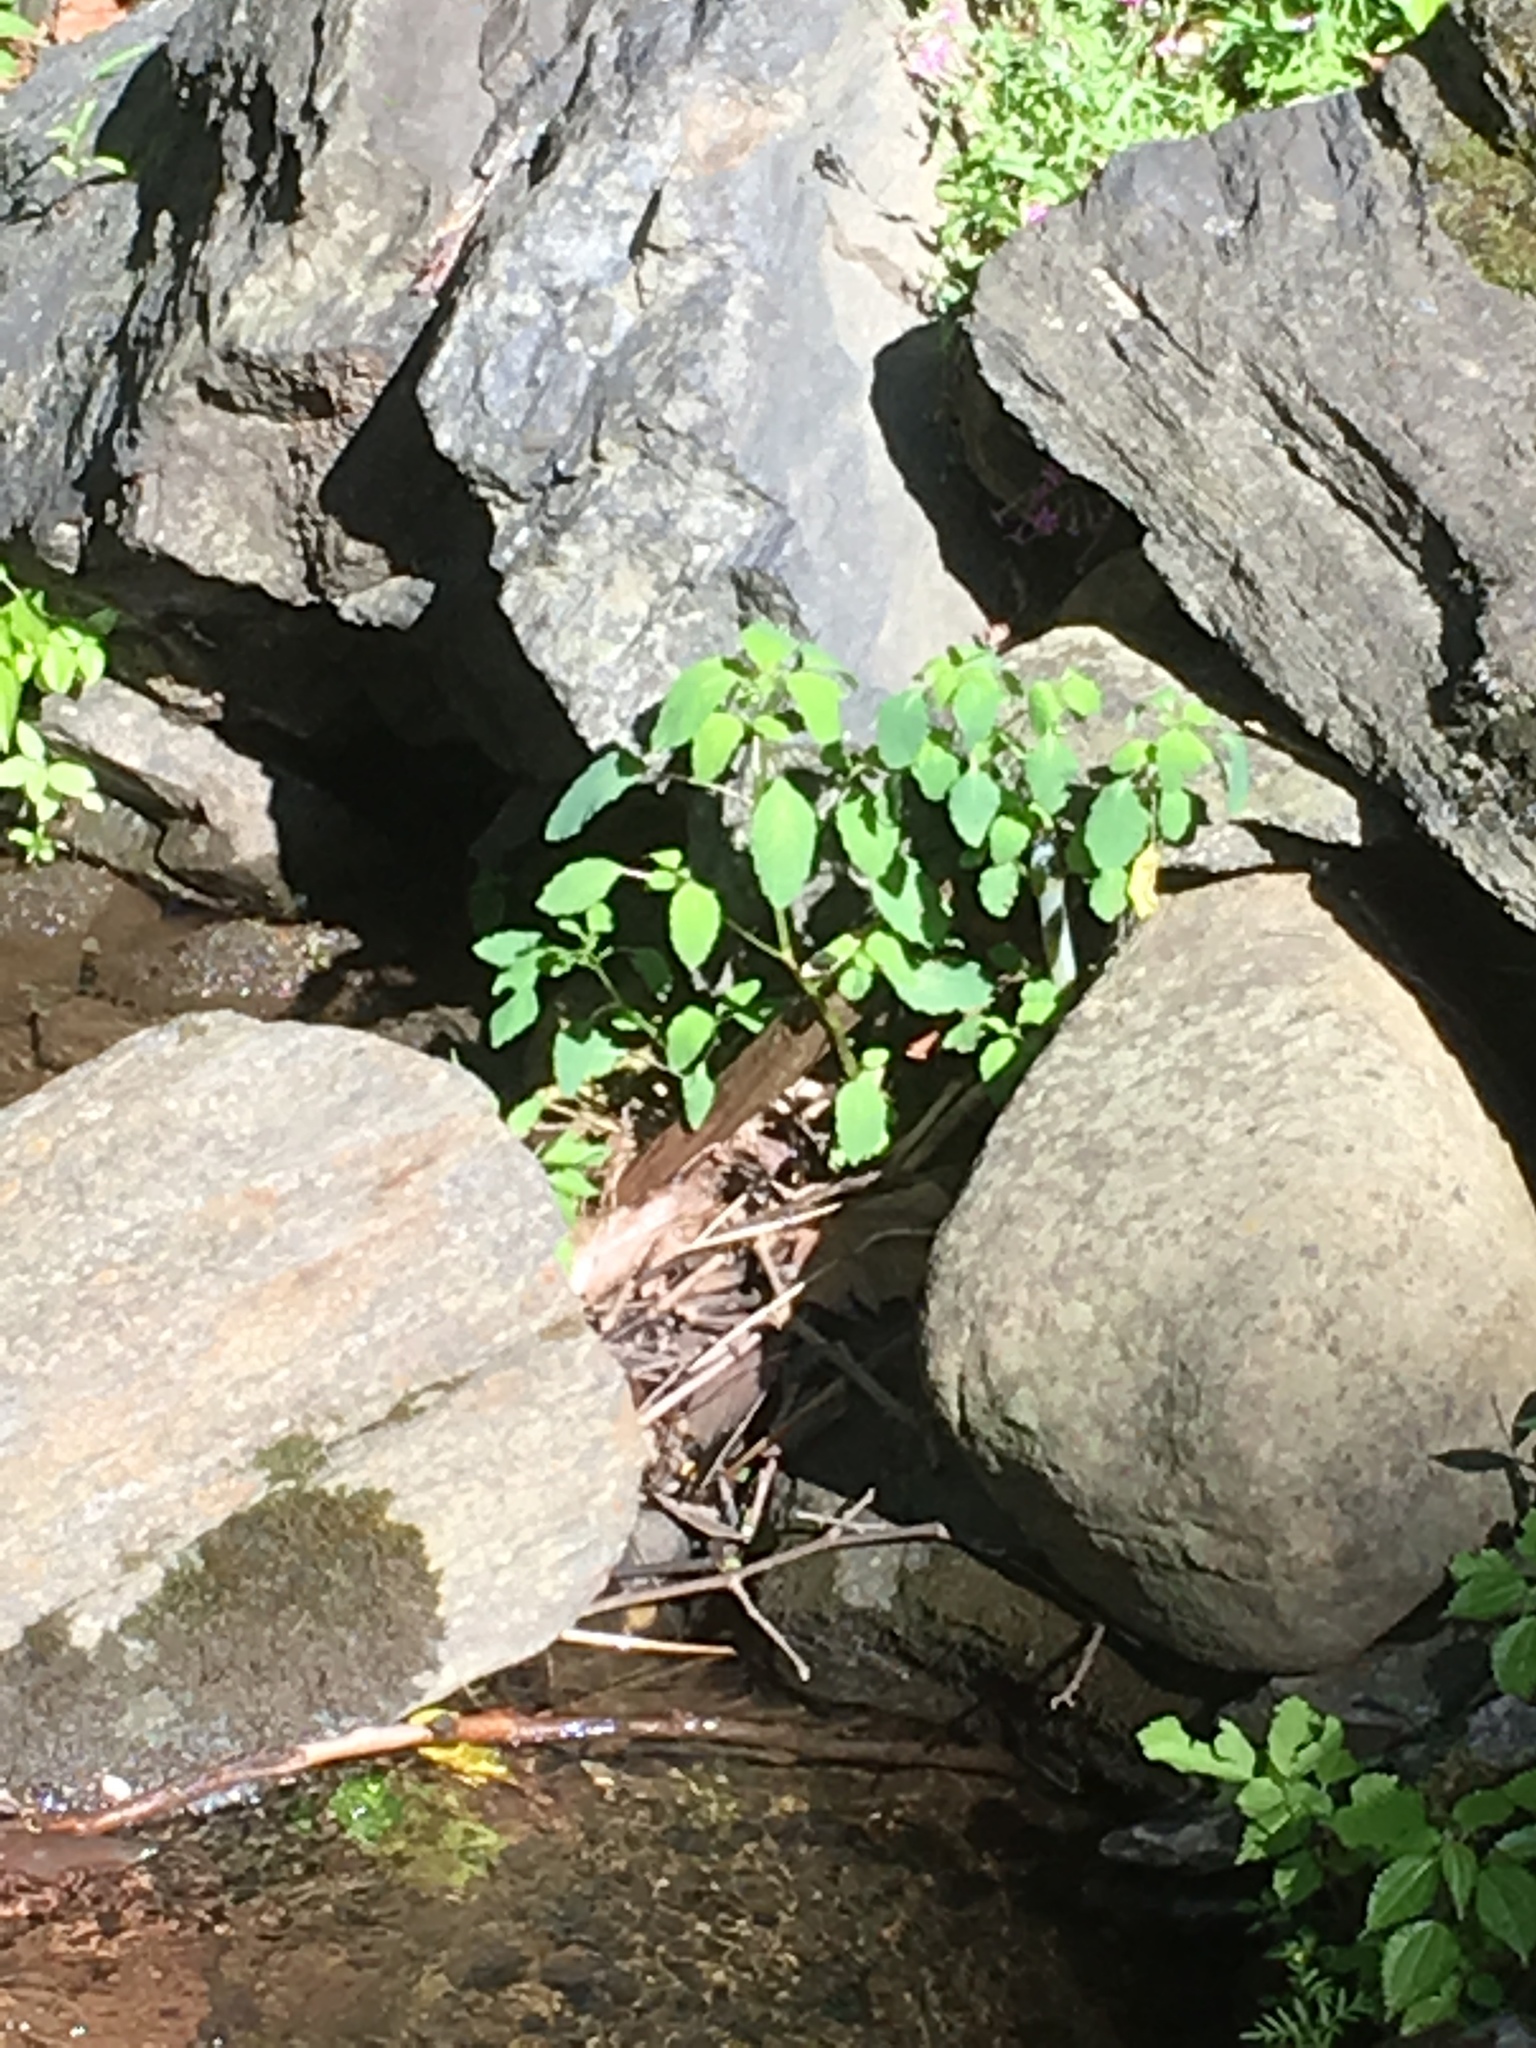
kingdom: Plantae
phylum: Tracheophyta
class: Magnoliopsida
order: Ericales
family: Balsaminaceae
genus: Impatiens
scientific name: Impatiens capensis
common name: Orange balsam
